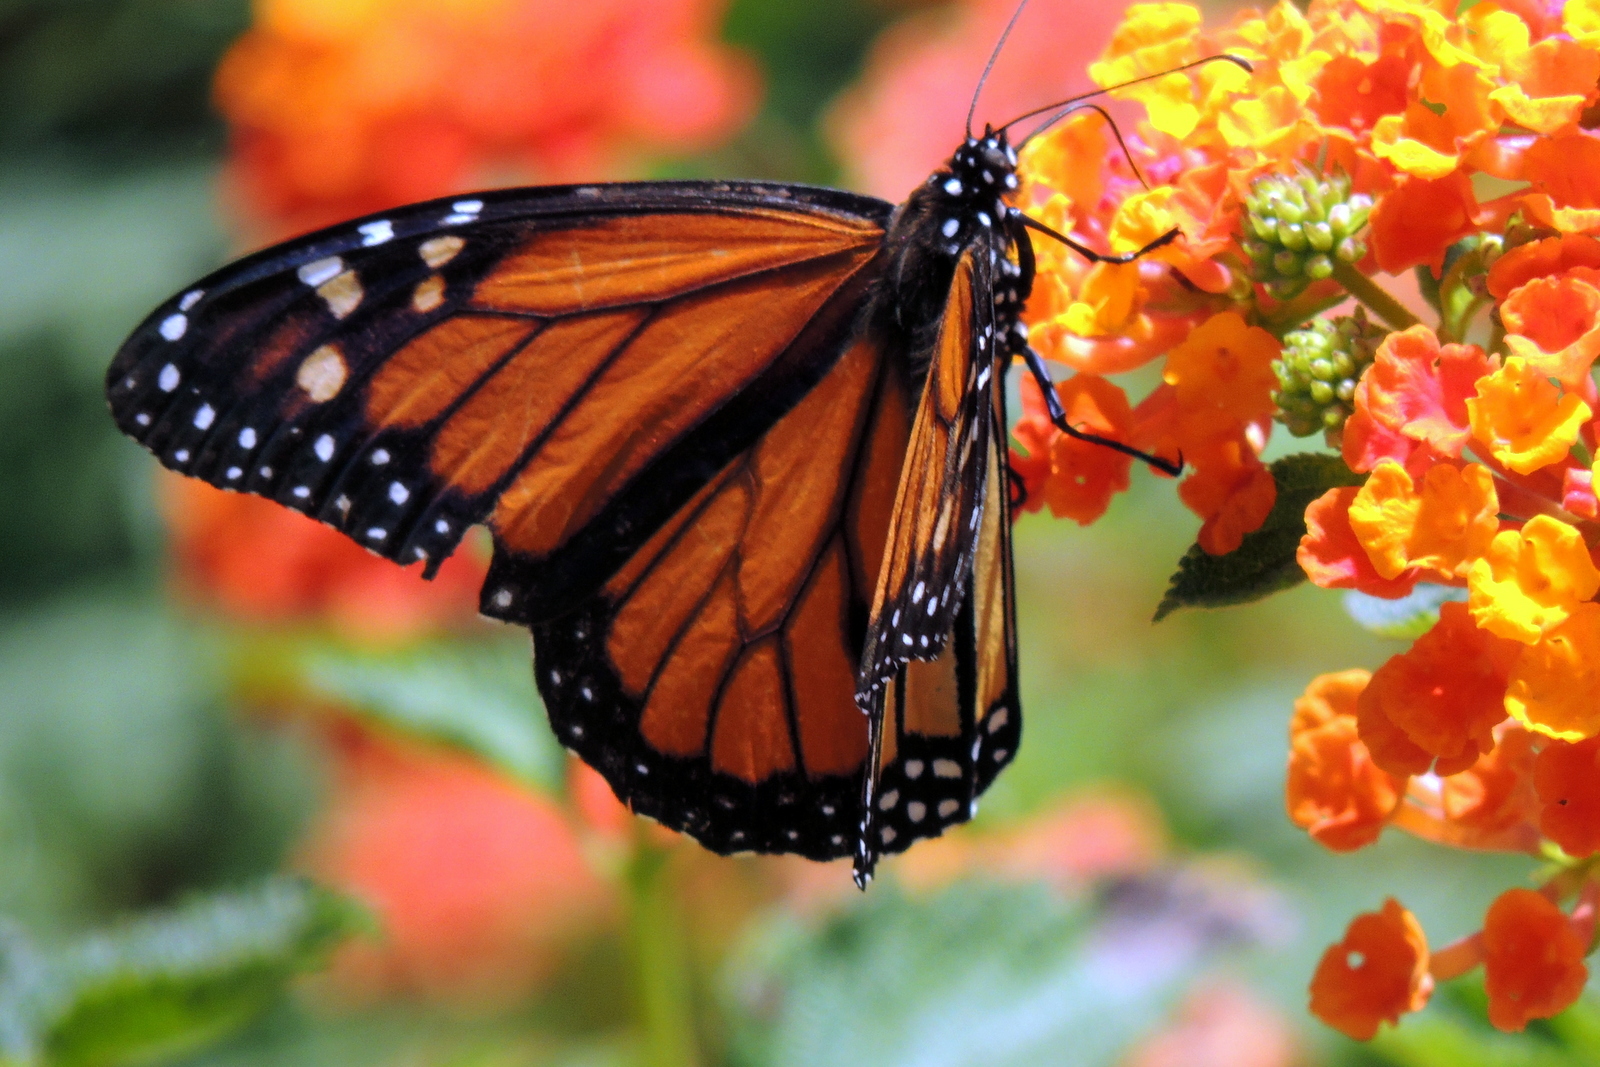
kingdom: Animalia
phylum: Arthropoda
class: Insecta
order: Lepidoptera
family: Nymphalidae
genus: Danaus
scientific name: Danaus plexippus
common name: Monarch
